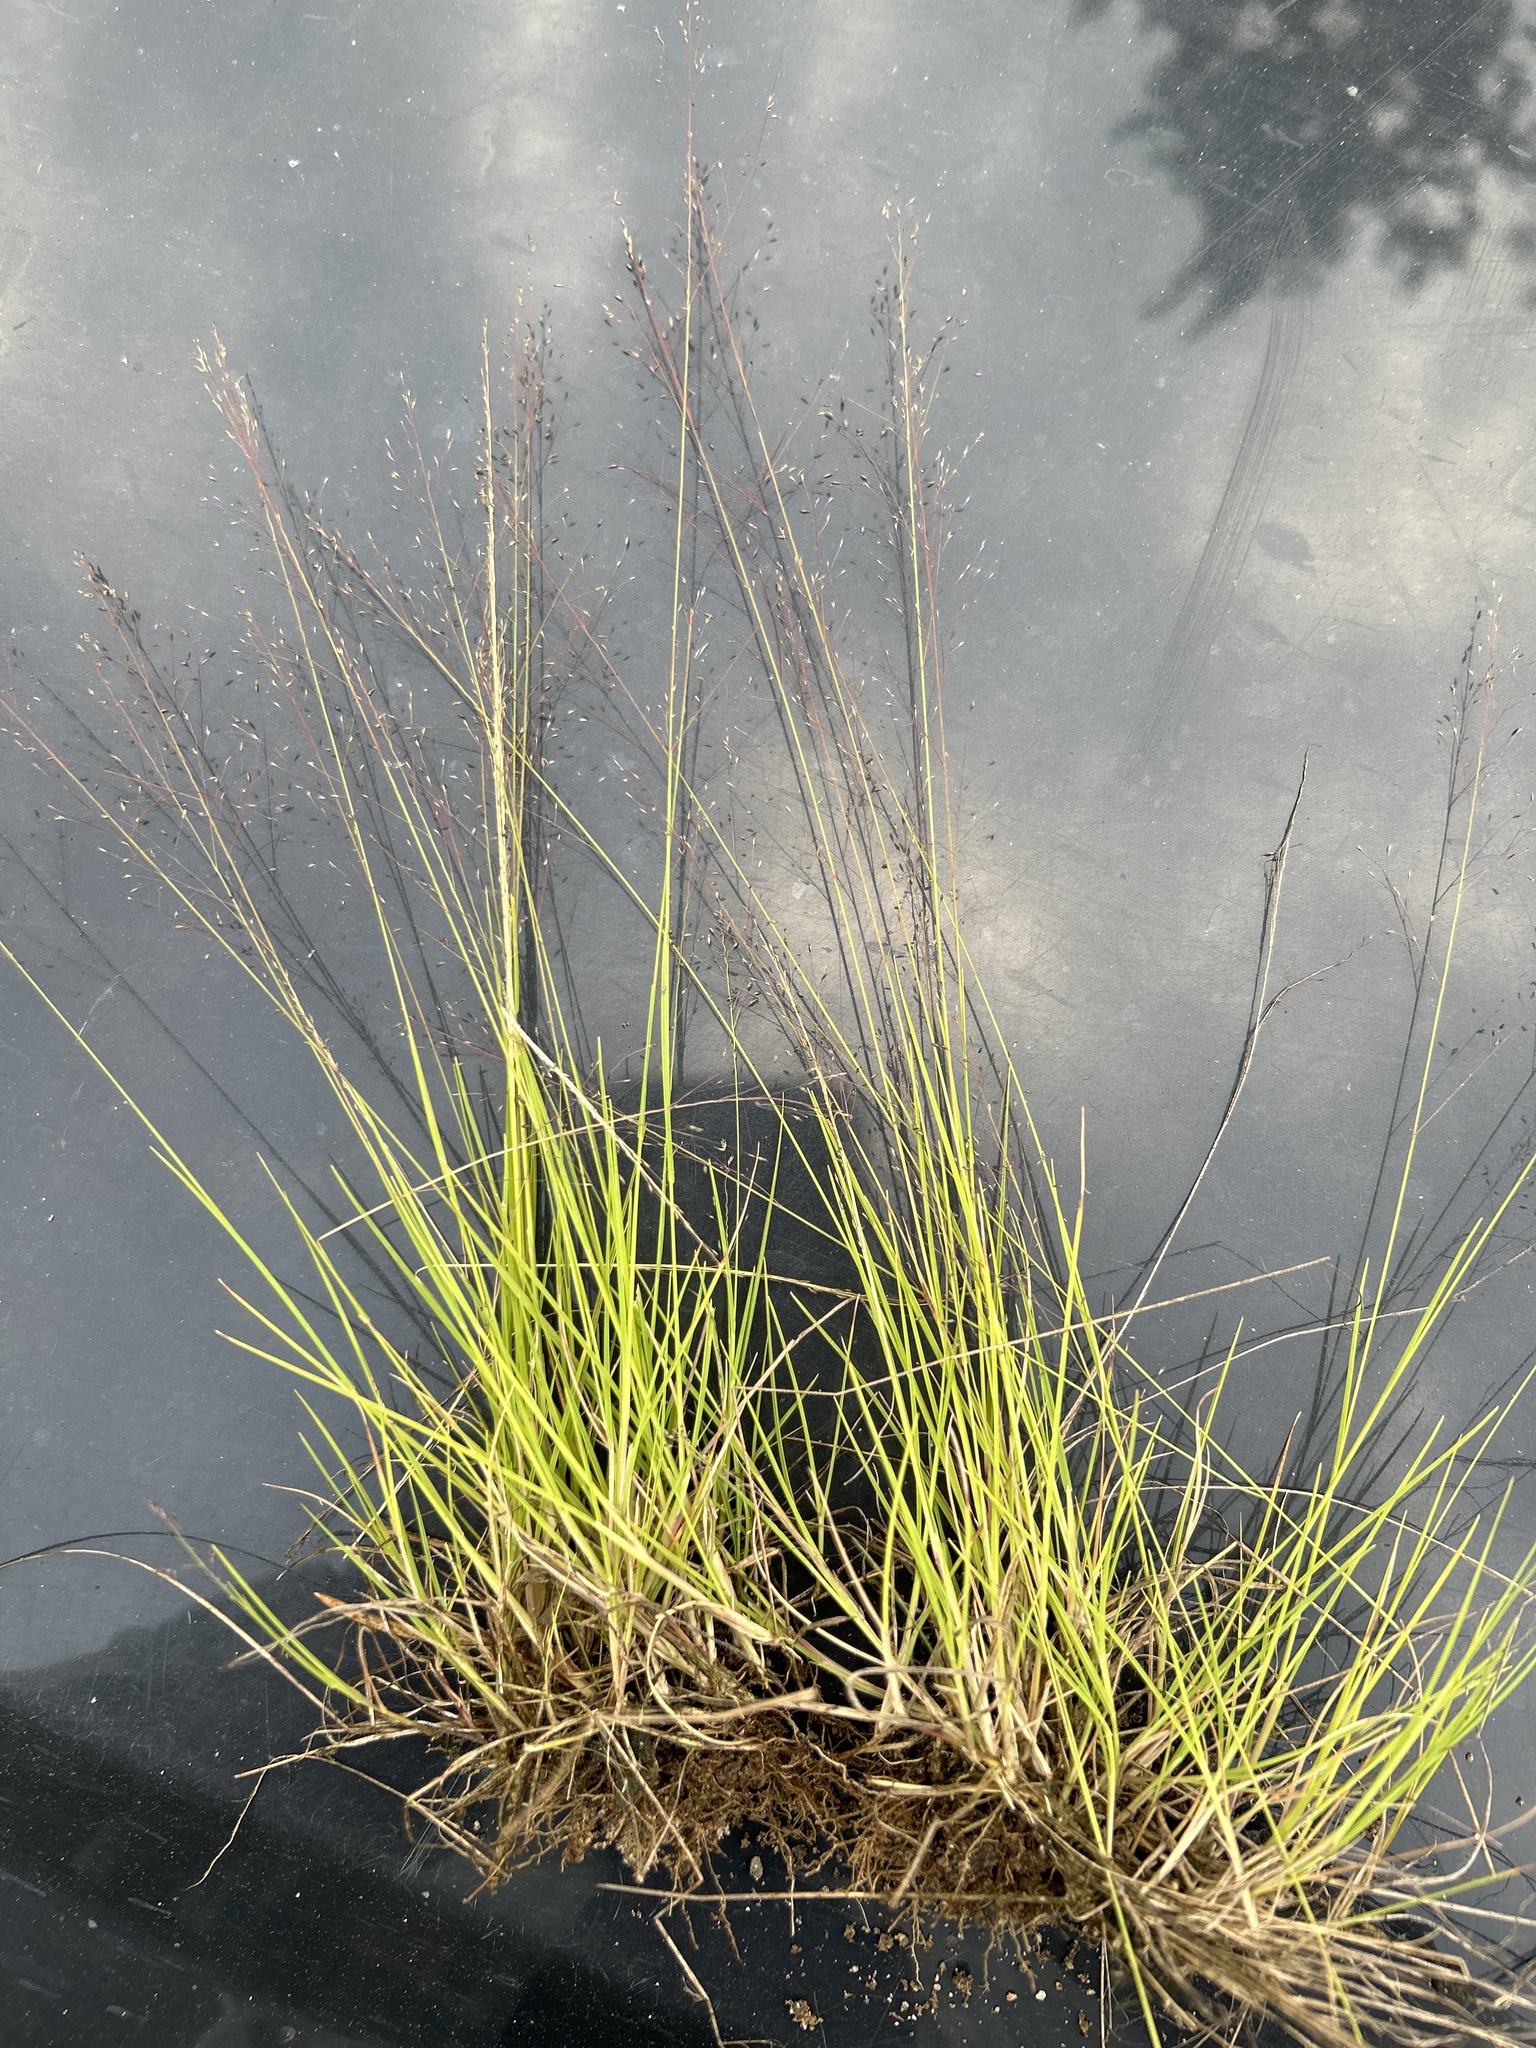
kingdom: Plantae
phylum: Tracheophyta
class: Liliopsida
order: Poales
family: Poaceae
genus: Muhlenbergia
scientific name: Muhlenbergia uniflora
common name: Bog muhly
